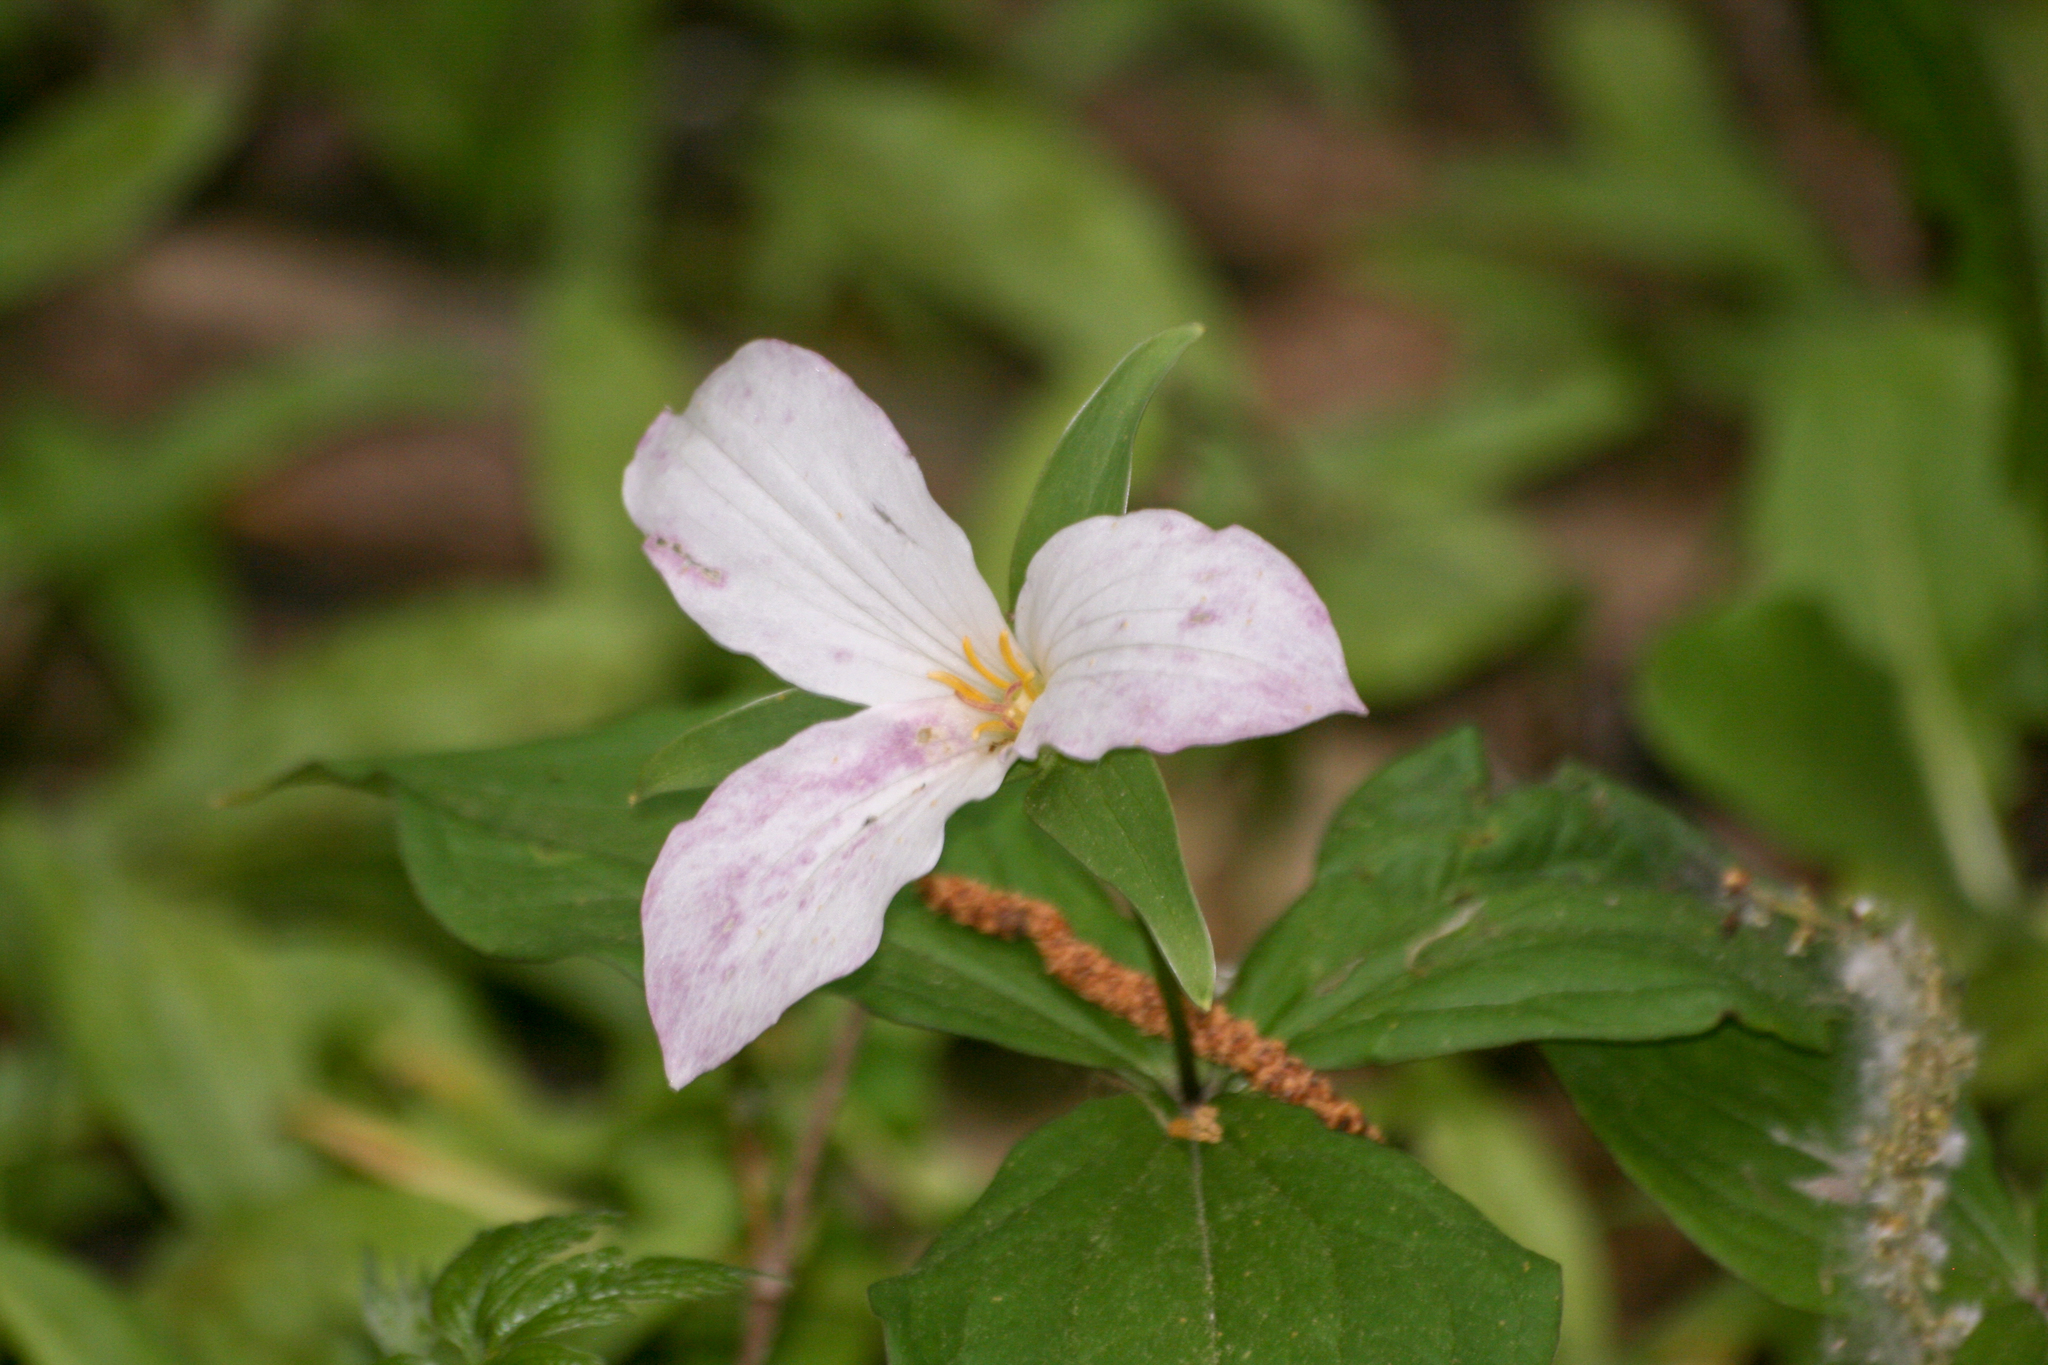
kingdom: Plantae
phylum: Tracheophyta
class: Liliopsida
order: Liliales
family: Melanthiaceae
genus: Trillium
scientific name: Trillium grandiflorum
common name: Great white trillium
